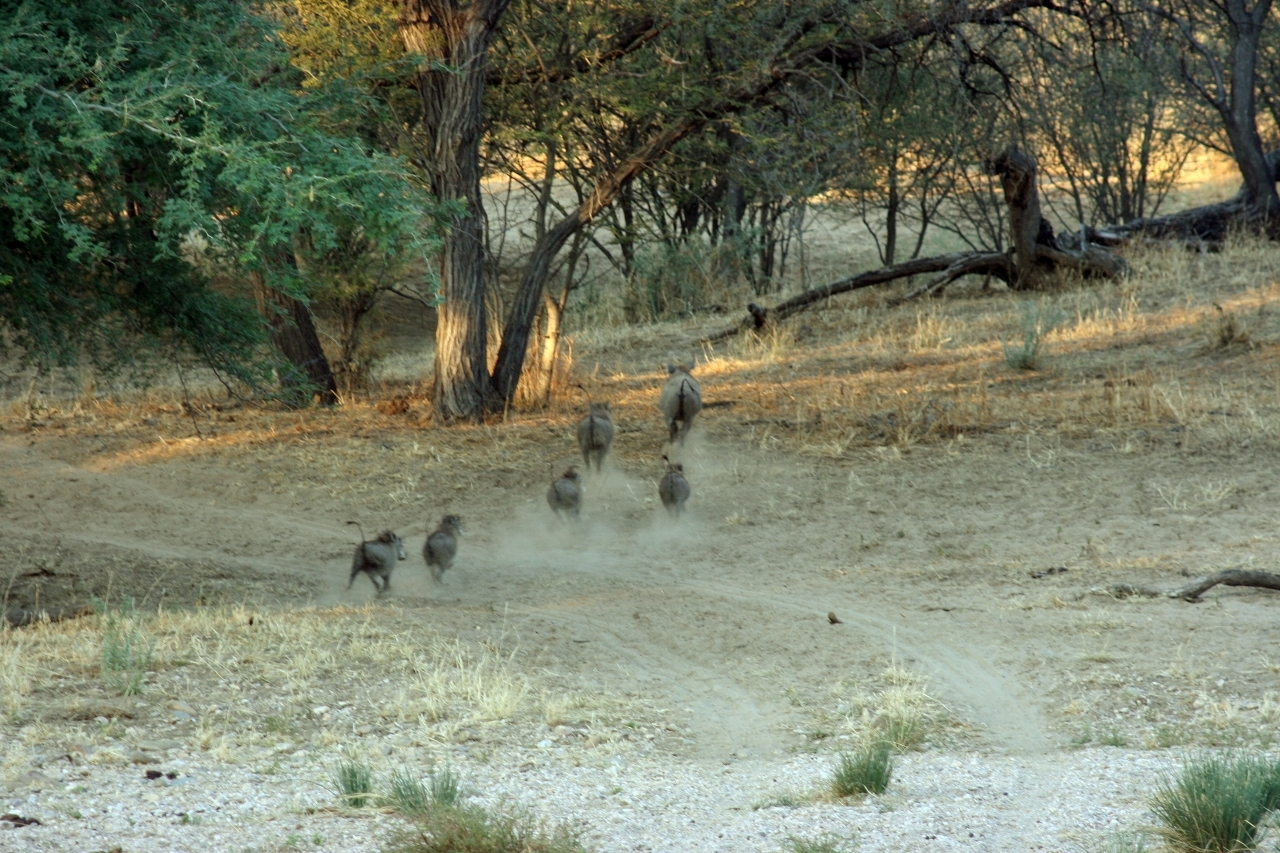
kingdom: Animalia
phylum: Chordata
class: Mammalia
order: Artiodactyla
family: Suidae
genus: Phacochoerus
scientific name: Phacochoerus africanus
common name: Common warthog
